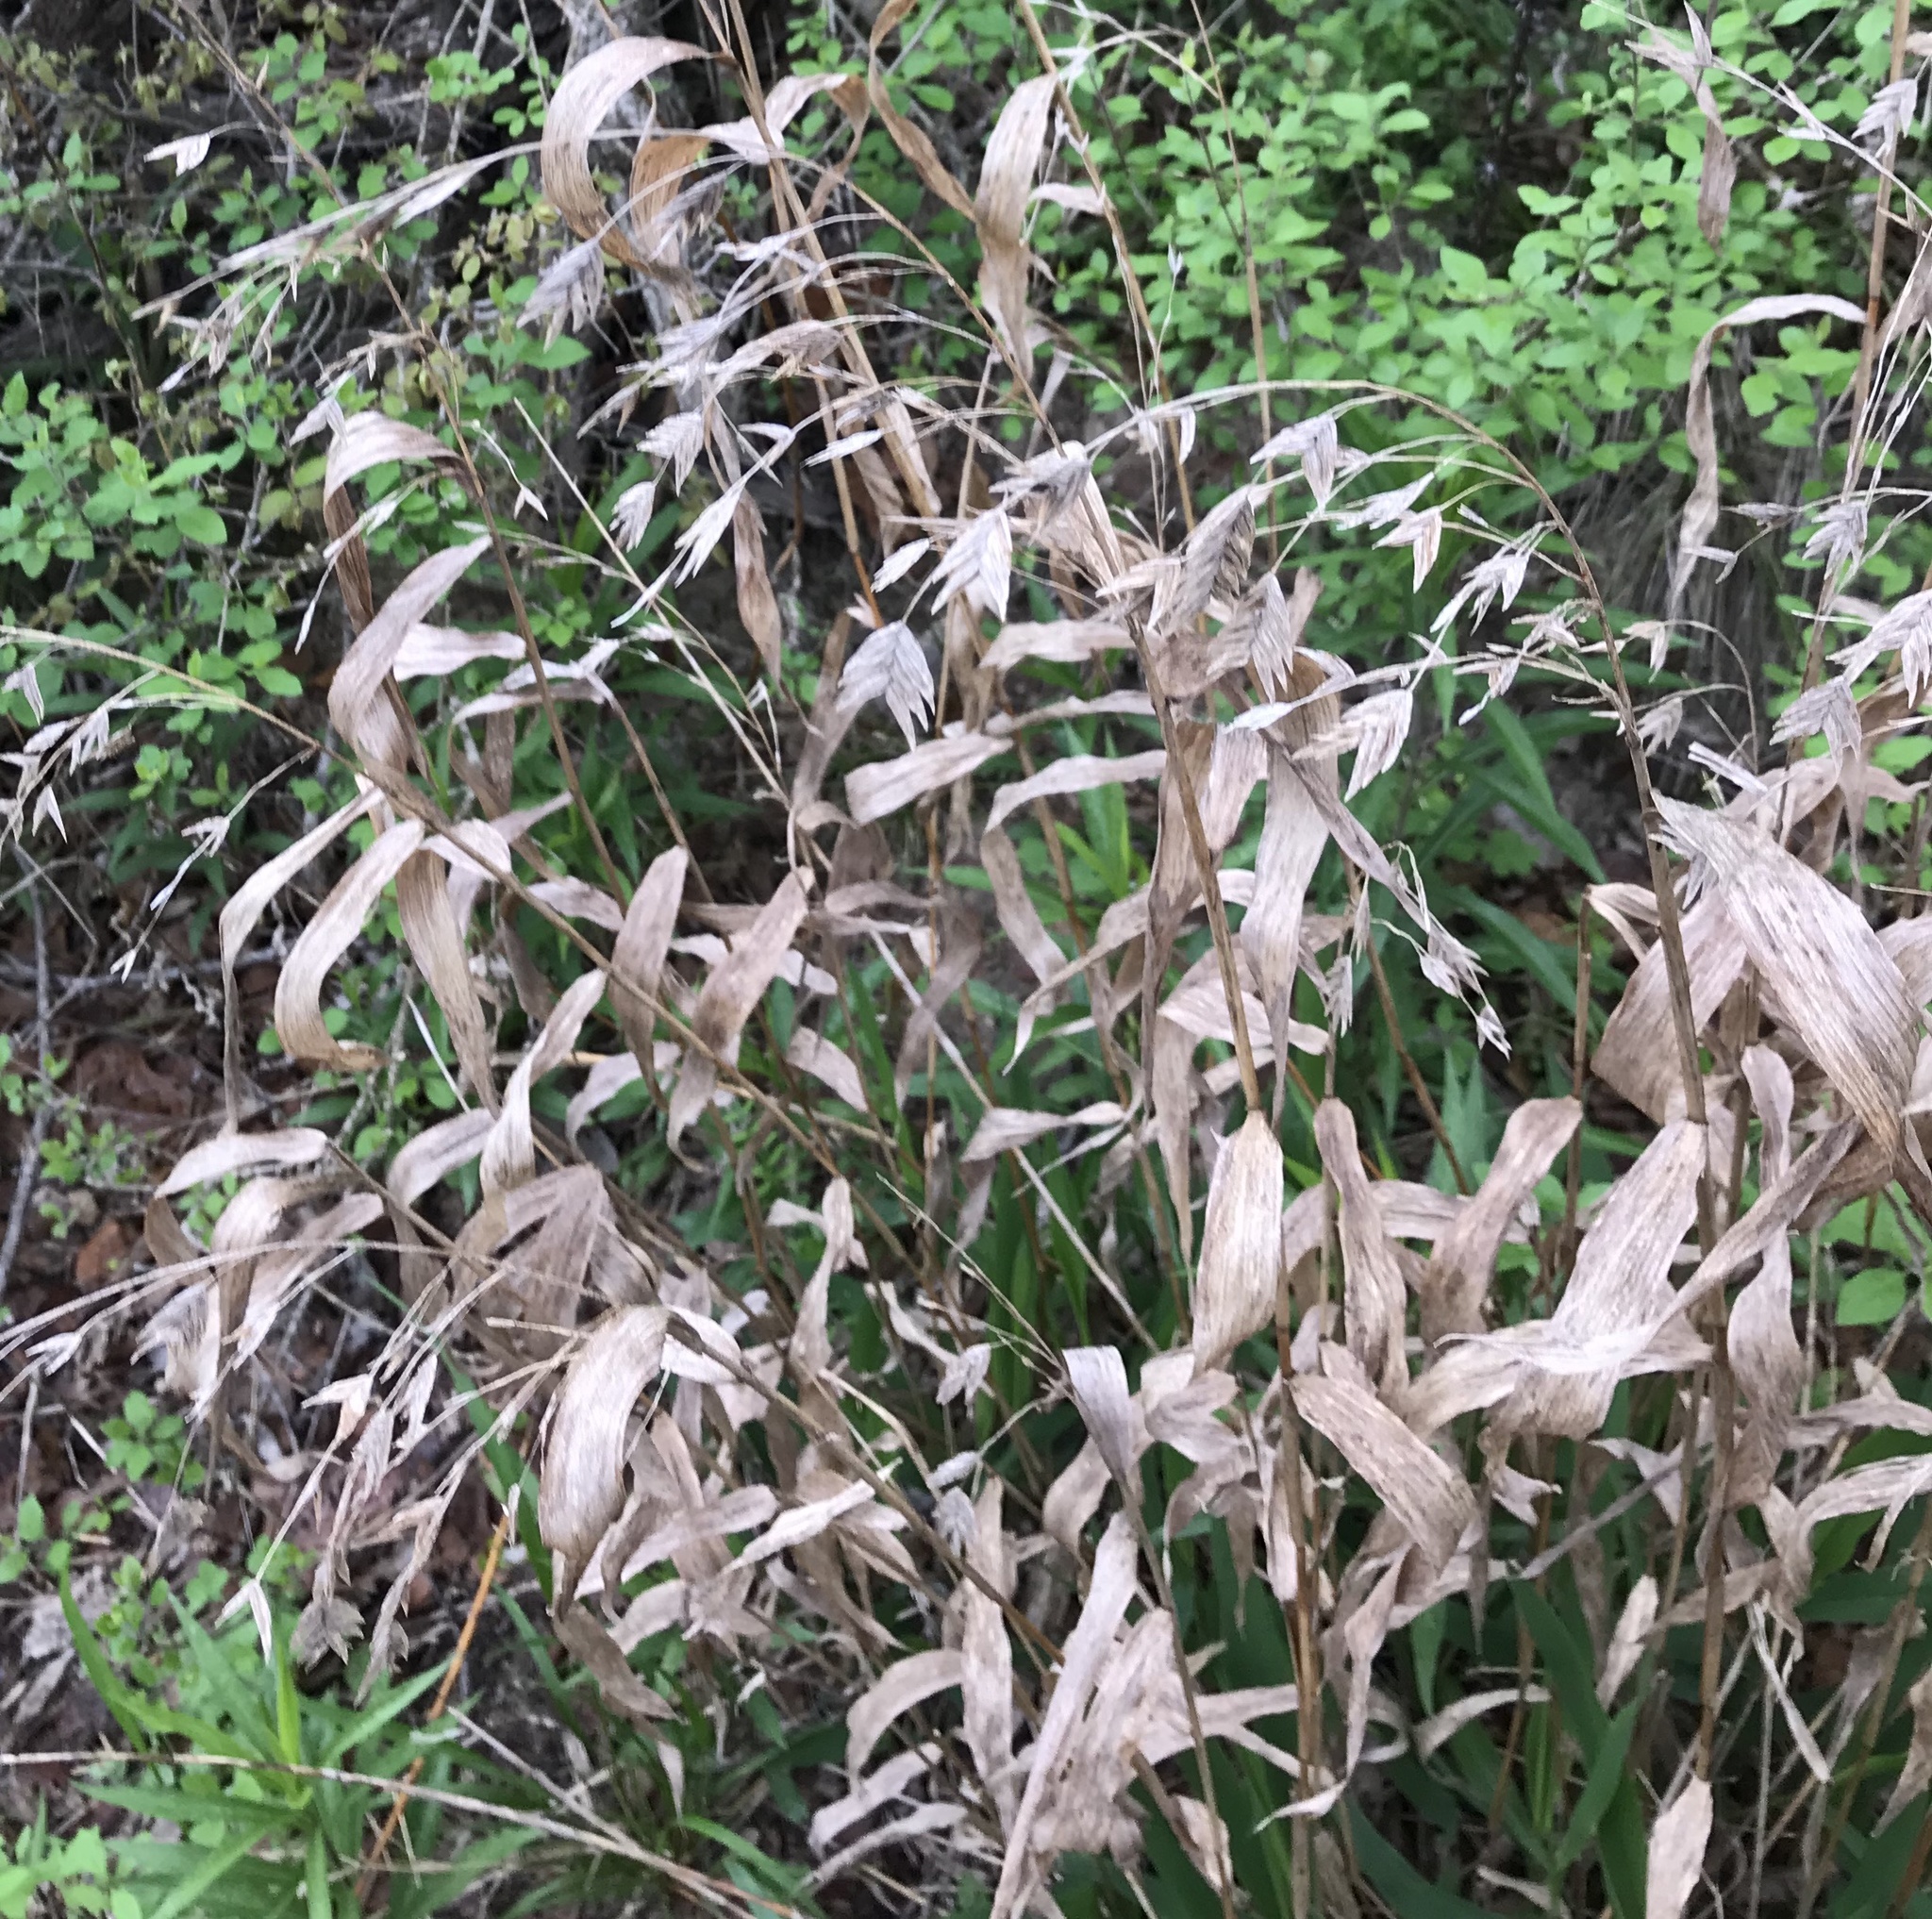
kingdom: Plantae
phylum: Tracheophyta
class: Liliopsida
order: Poales
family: Poaceae
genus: Chasmanthium
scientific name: Chasmanthium latifolium
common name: Broad-leaved chasmanthium
